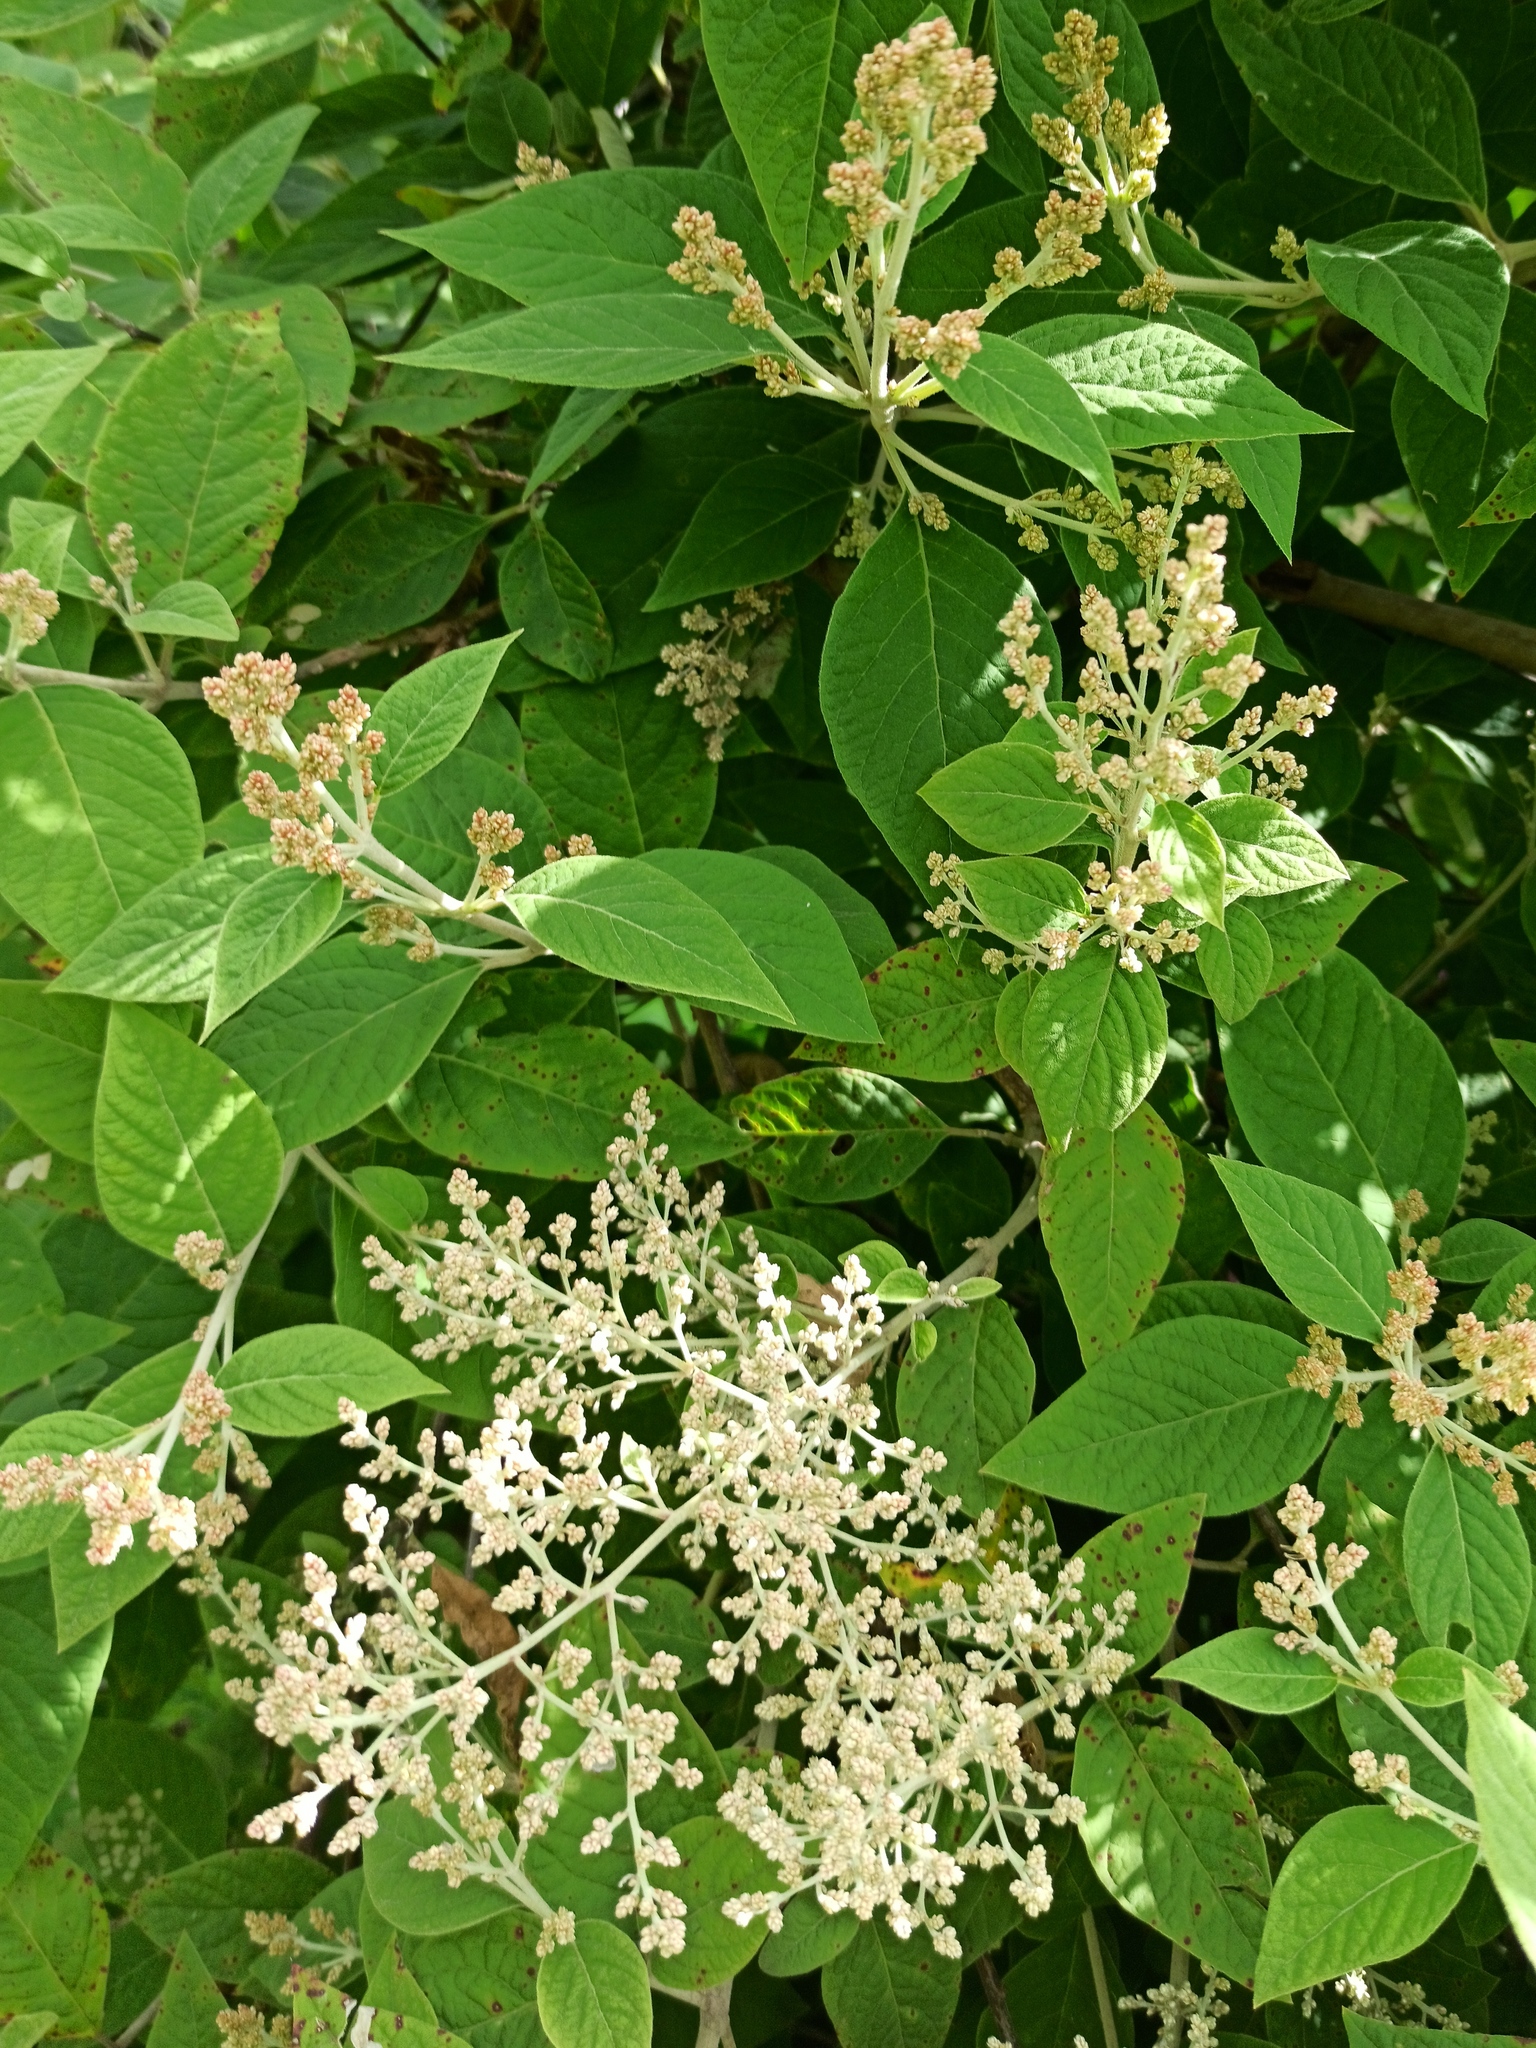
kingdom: Plantae
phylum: Tracheophyta
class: Magnoliopsida
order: Lamiales
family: Scrophulariaceae
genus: Buddleja
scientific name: Buddleja cordata
